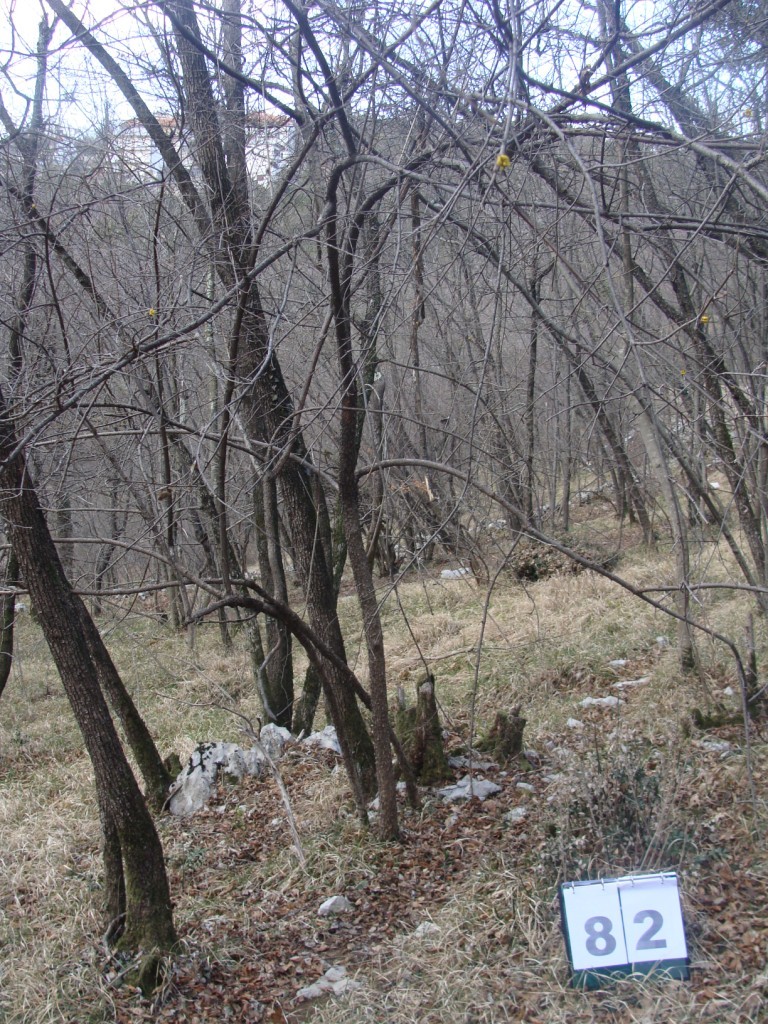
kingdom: Plantae
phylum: Tracheophyta
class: Magnoliopsida
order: Cornales
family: Cornaceae
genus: Cornus
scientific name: Cornus mas
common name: Cornelian-cherry
